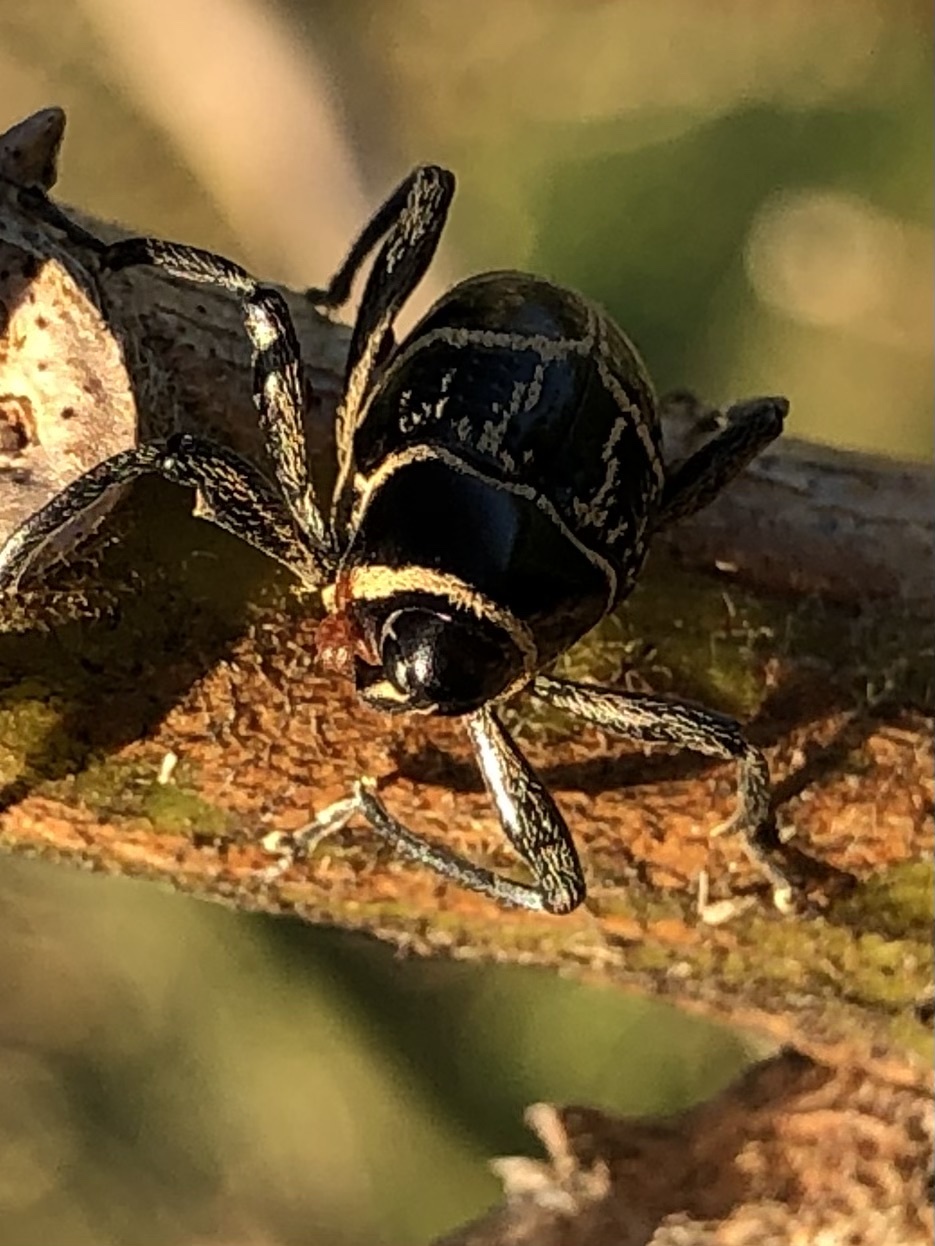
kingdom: Animalia
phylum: Arthropoda
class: Insecta
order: Coleoptera
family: Curculionidae
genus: Enteles
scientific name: Enteles vigorsii
